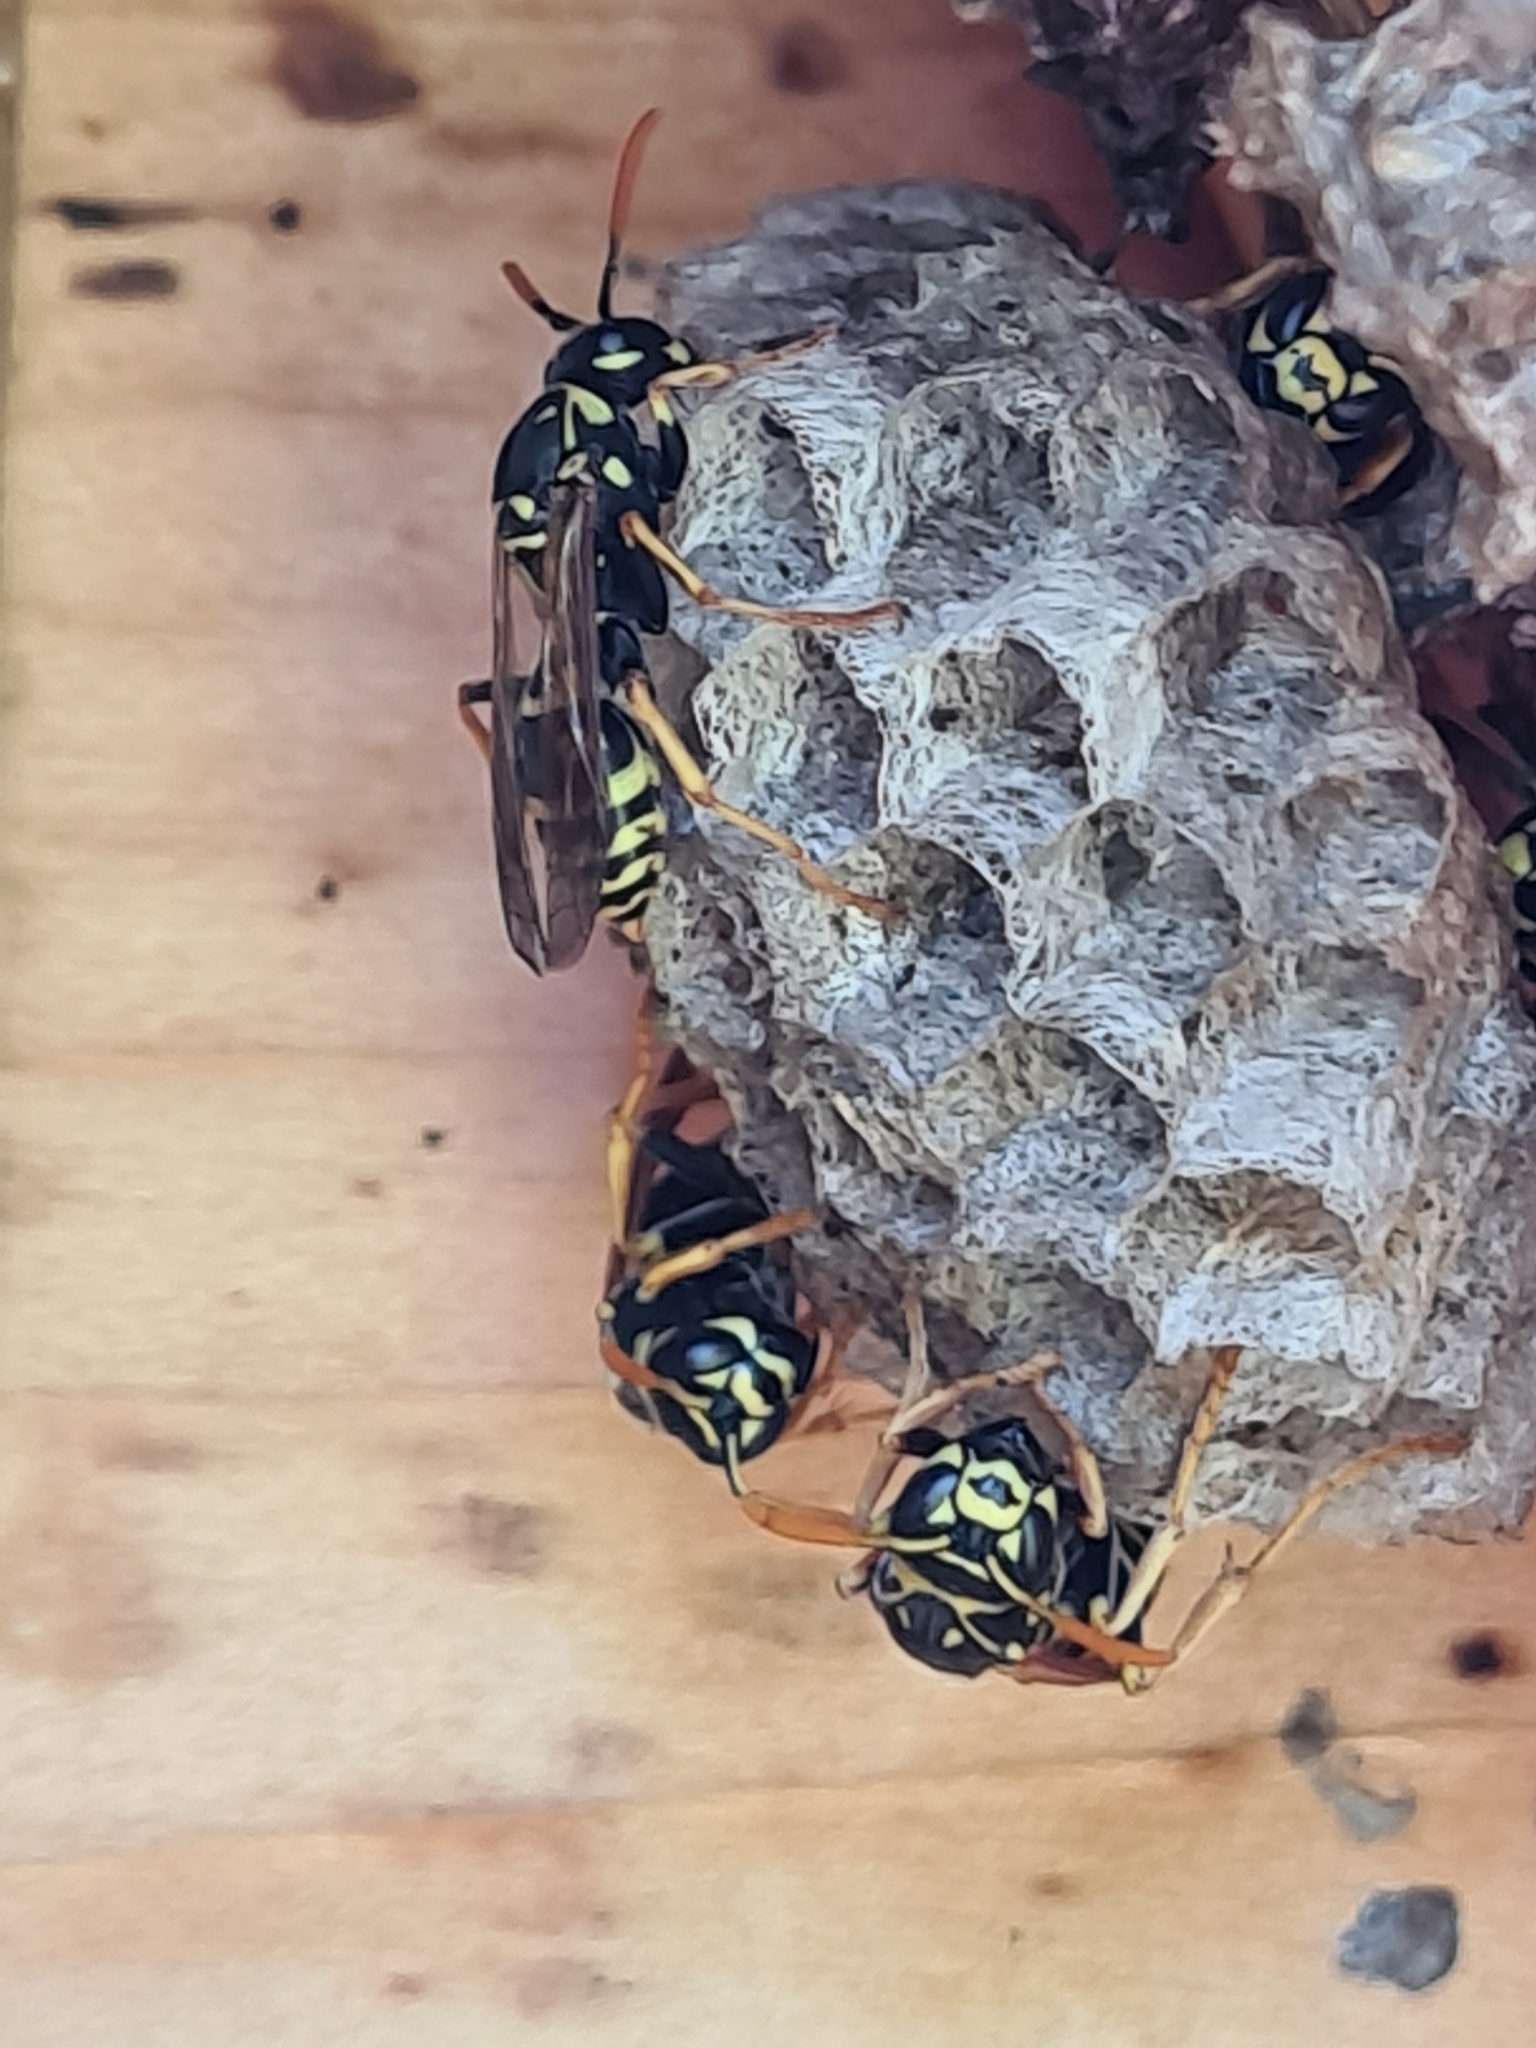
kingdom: Animalia
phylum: Arthropoda
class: Insecta
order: Hymenoptera
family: Eumenidae
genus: Polistes
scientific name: Polistes dominula
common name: Paper wasp
